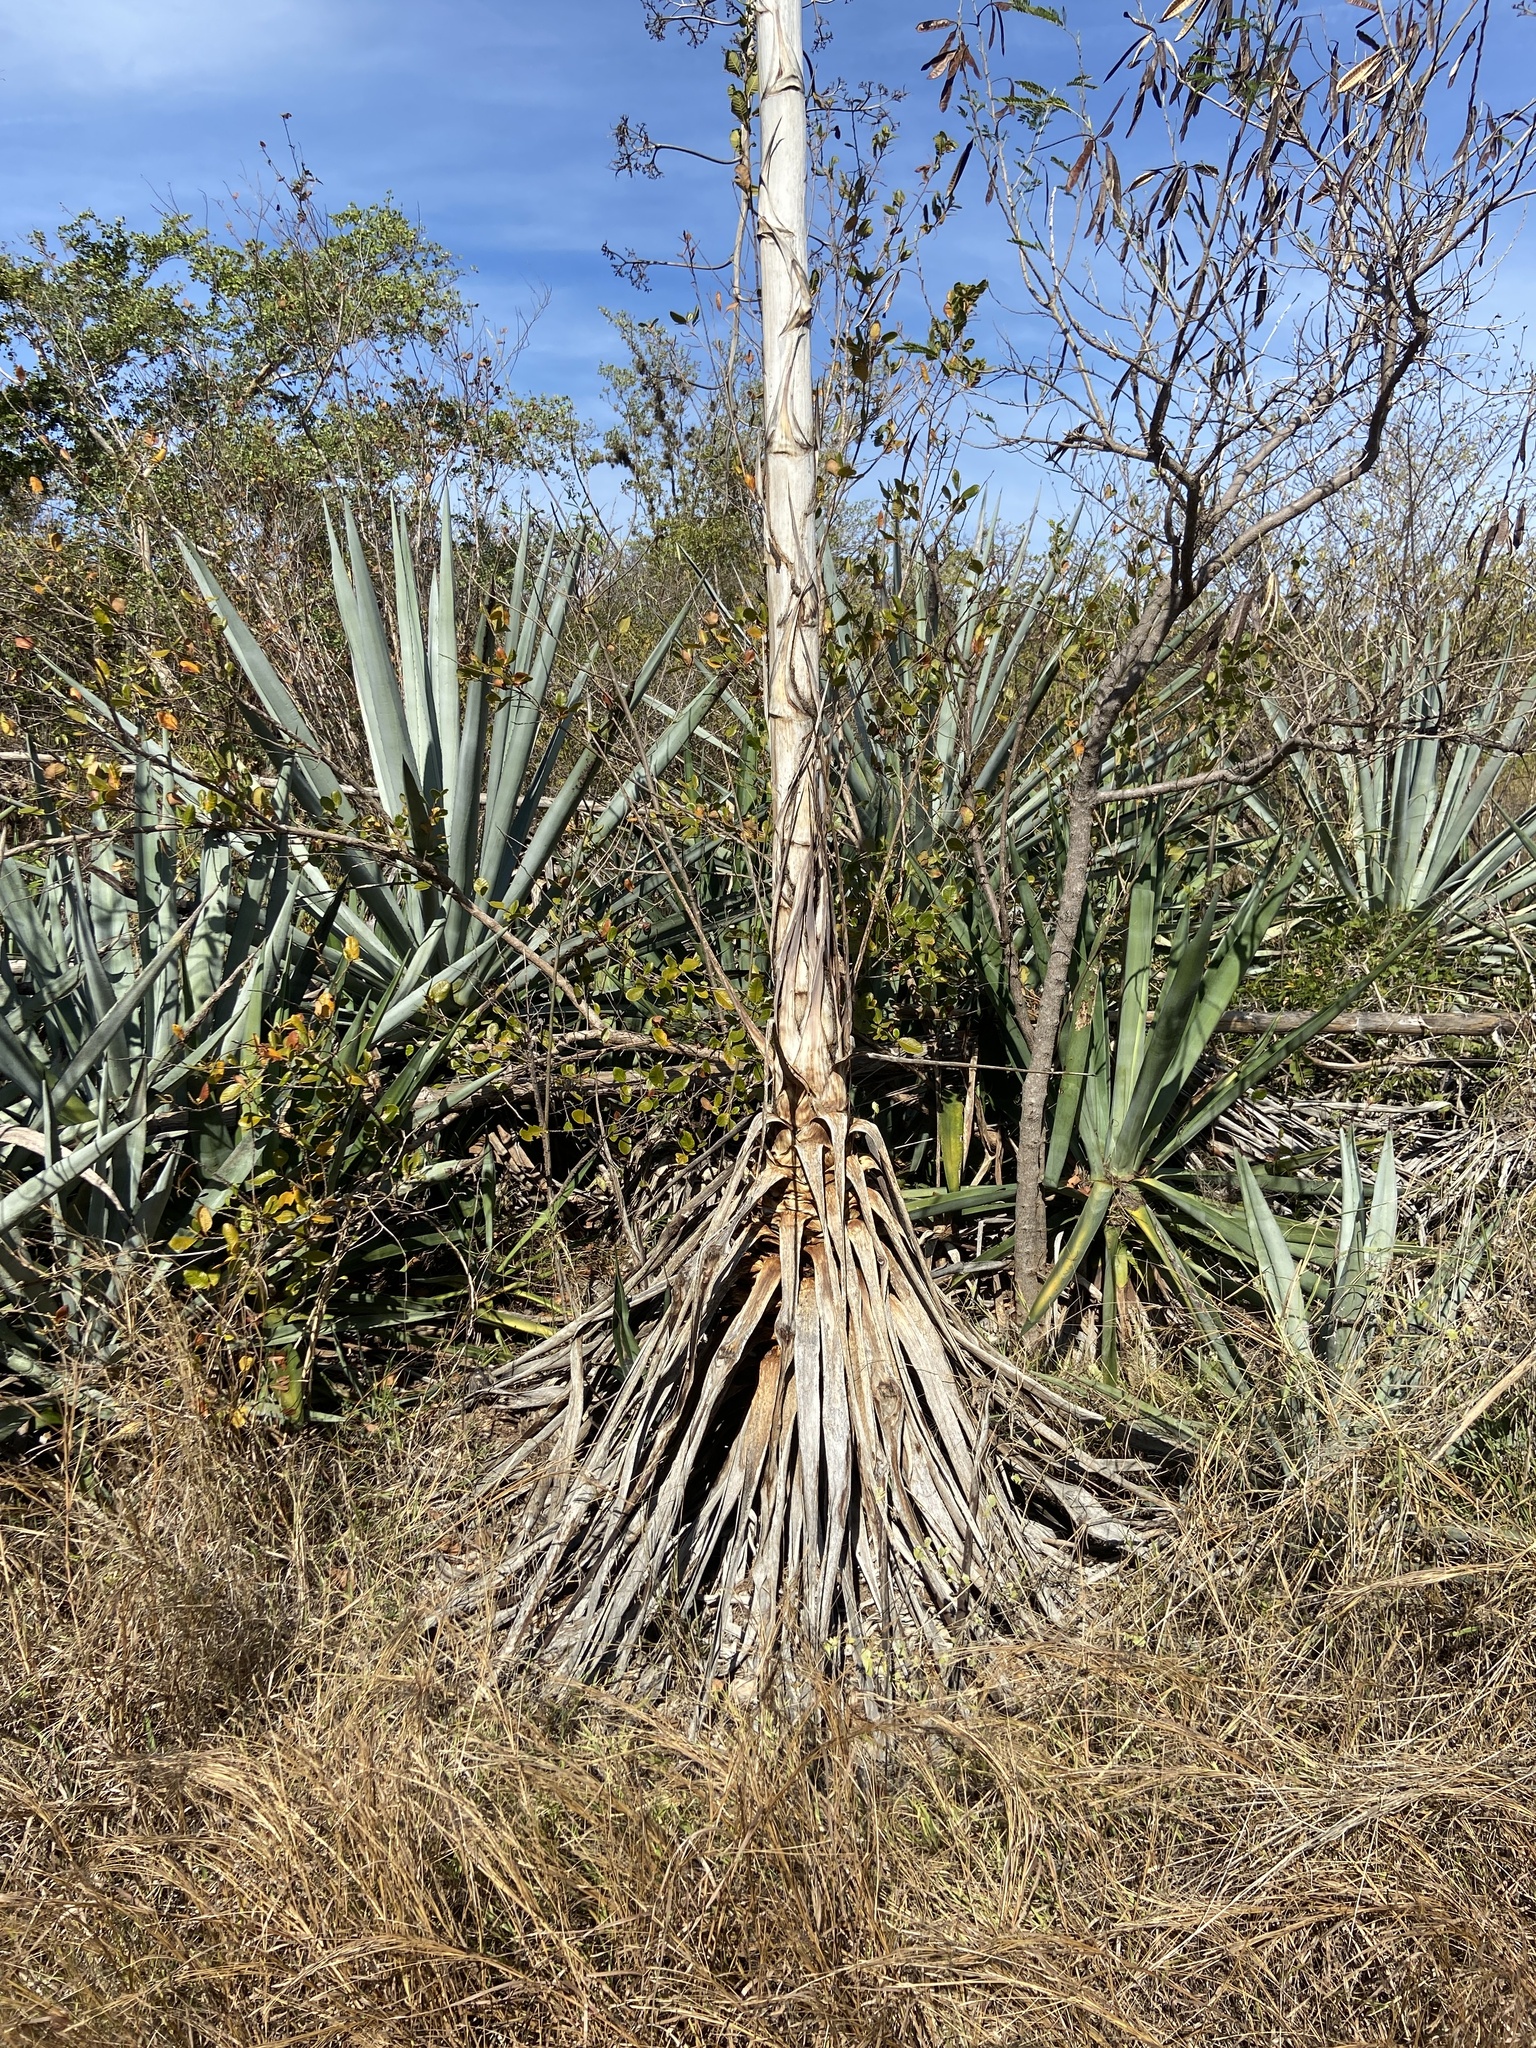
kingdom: Plantae
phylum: Tracheophyta
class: Liliopsida
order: Asparagales
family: Asparagaceae
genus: Agave
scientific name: Agave sisalana
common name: Sisal hemp
